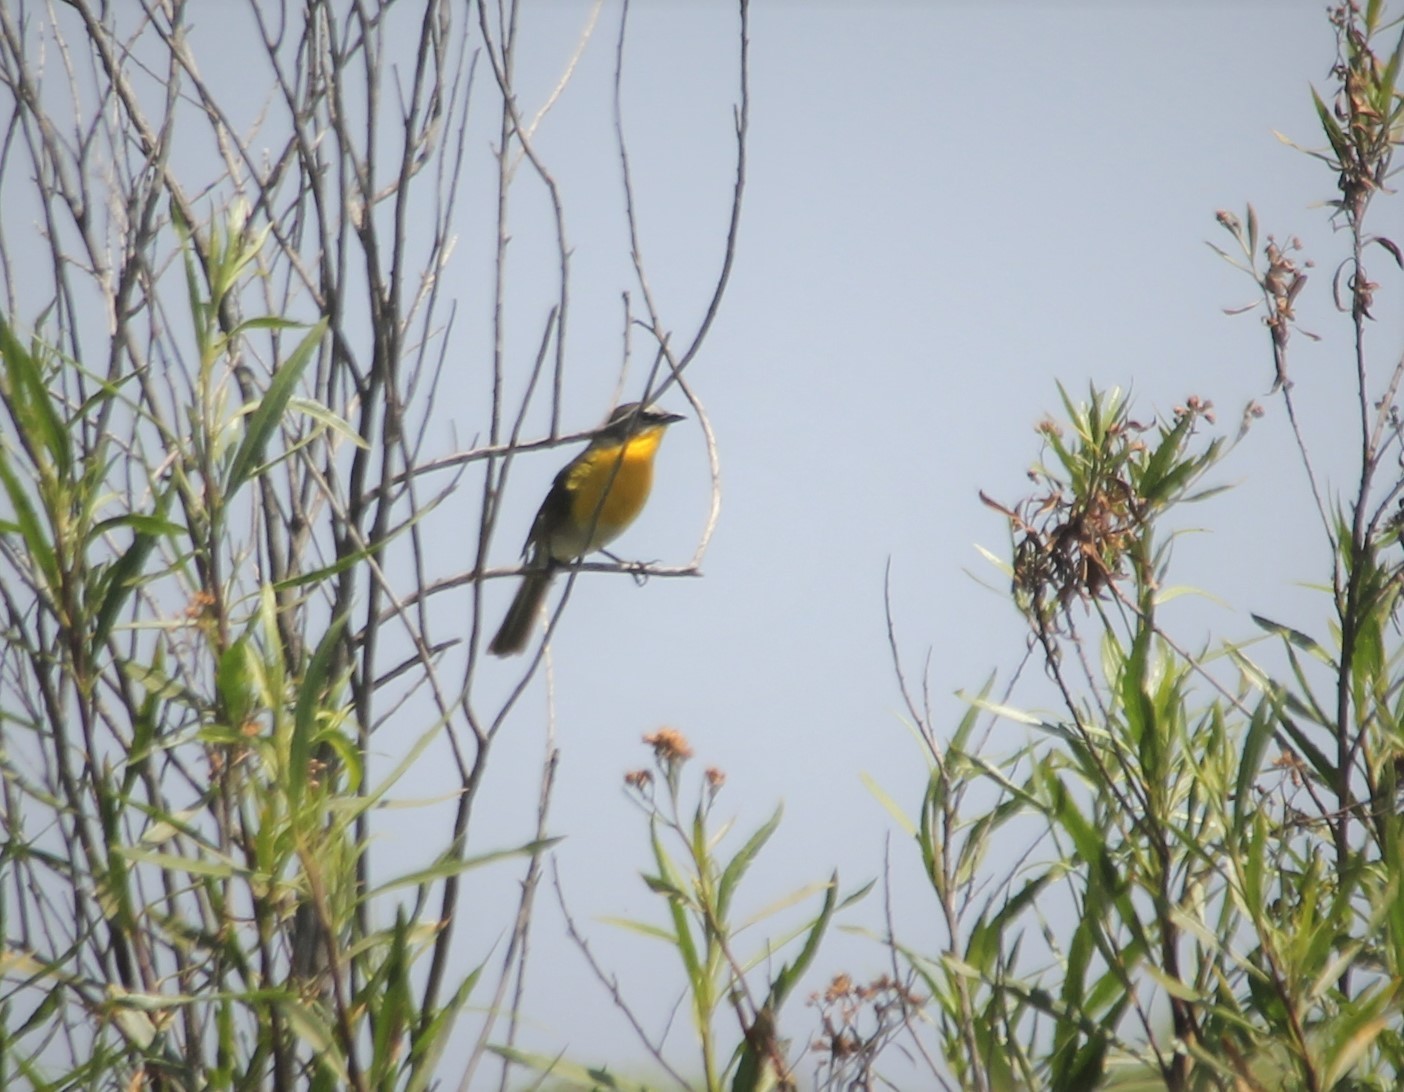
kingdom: Animalia
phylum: Chordata
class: Aves
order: Passeriformes
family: Parulidae
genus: Icteria
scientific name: Icteria virens
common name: Yellow-breasted chat
